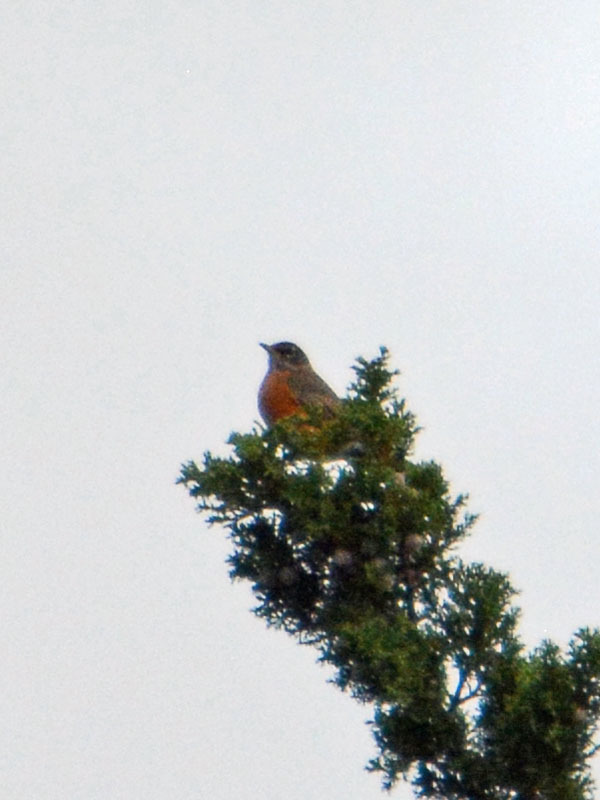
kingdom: Animalia
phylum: Chordata
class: Aves
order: Passeriformes
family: Turdidae
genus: Turdus
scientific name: Turdus migratorius
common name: American robin
